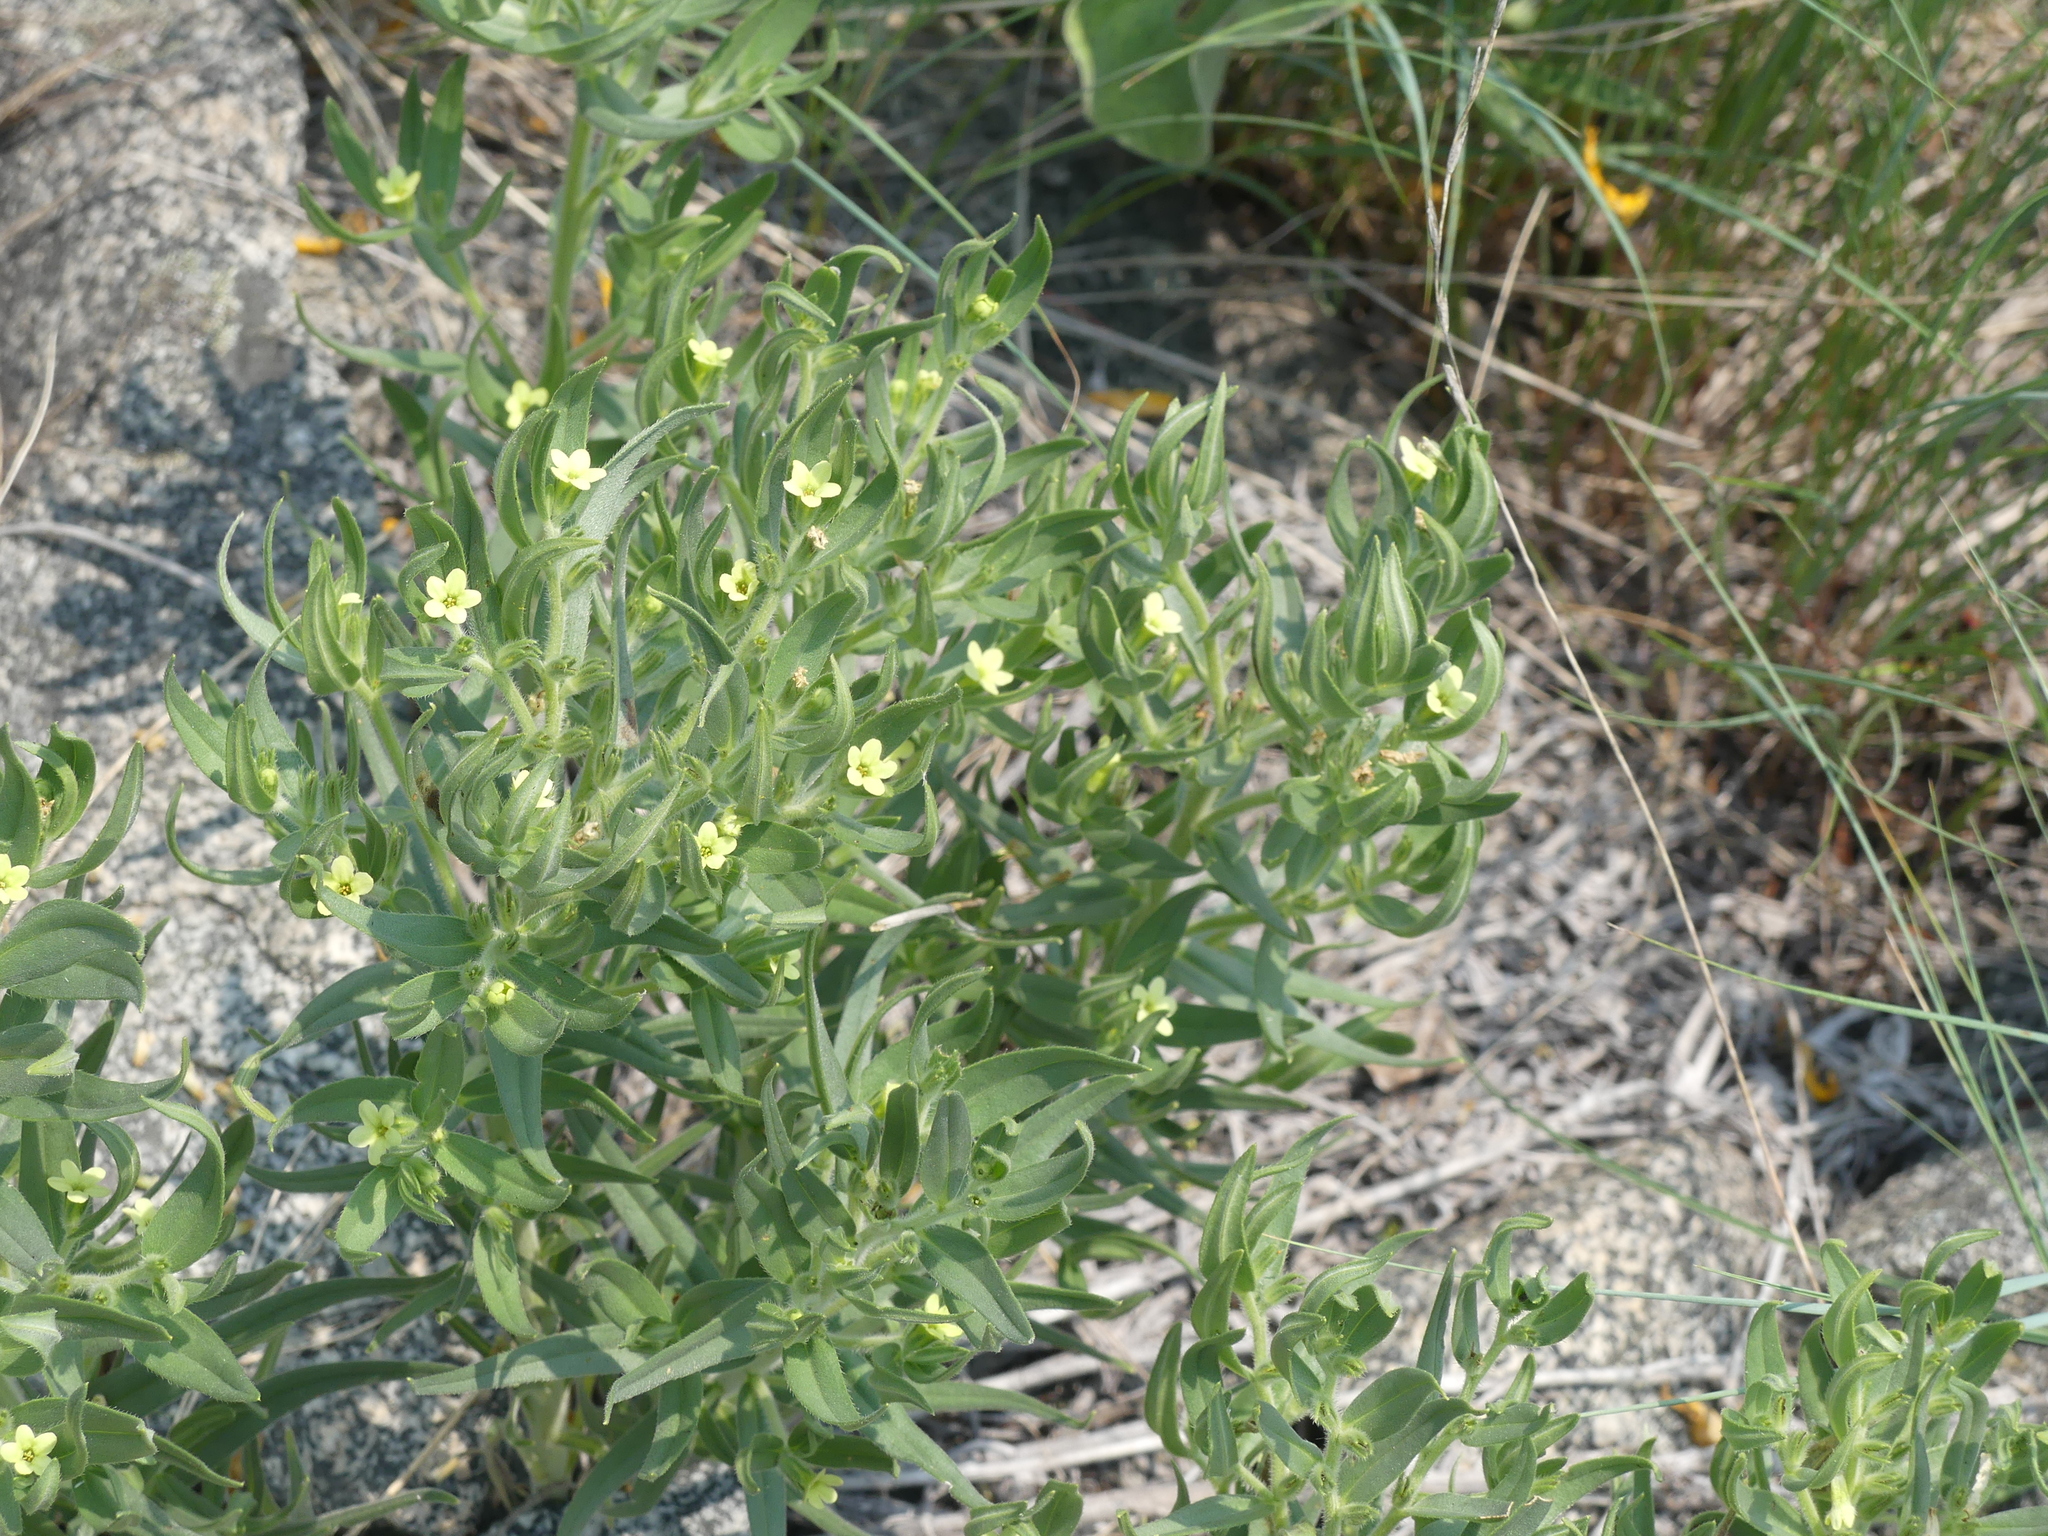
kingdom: Plantae
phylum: Tracheophyta
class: Magnoliopsida
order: Boraginales
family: Boraginaceae
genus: Lithospermum
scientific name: Lithospermum ruderale
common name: Western gromwell
